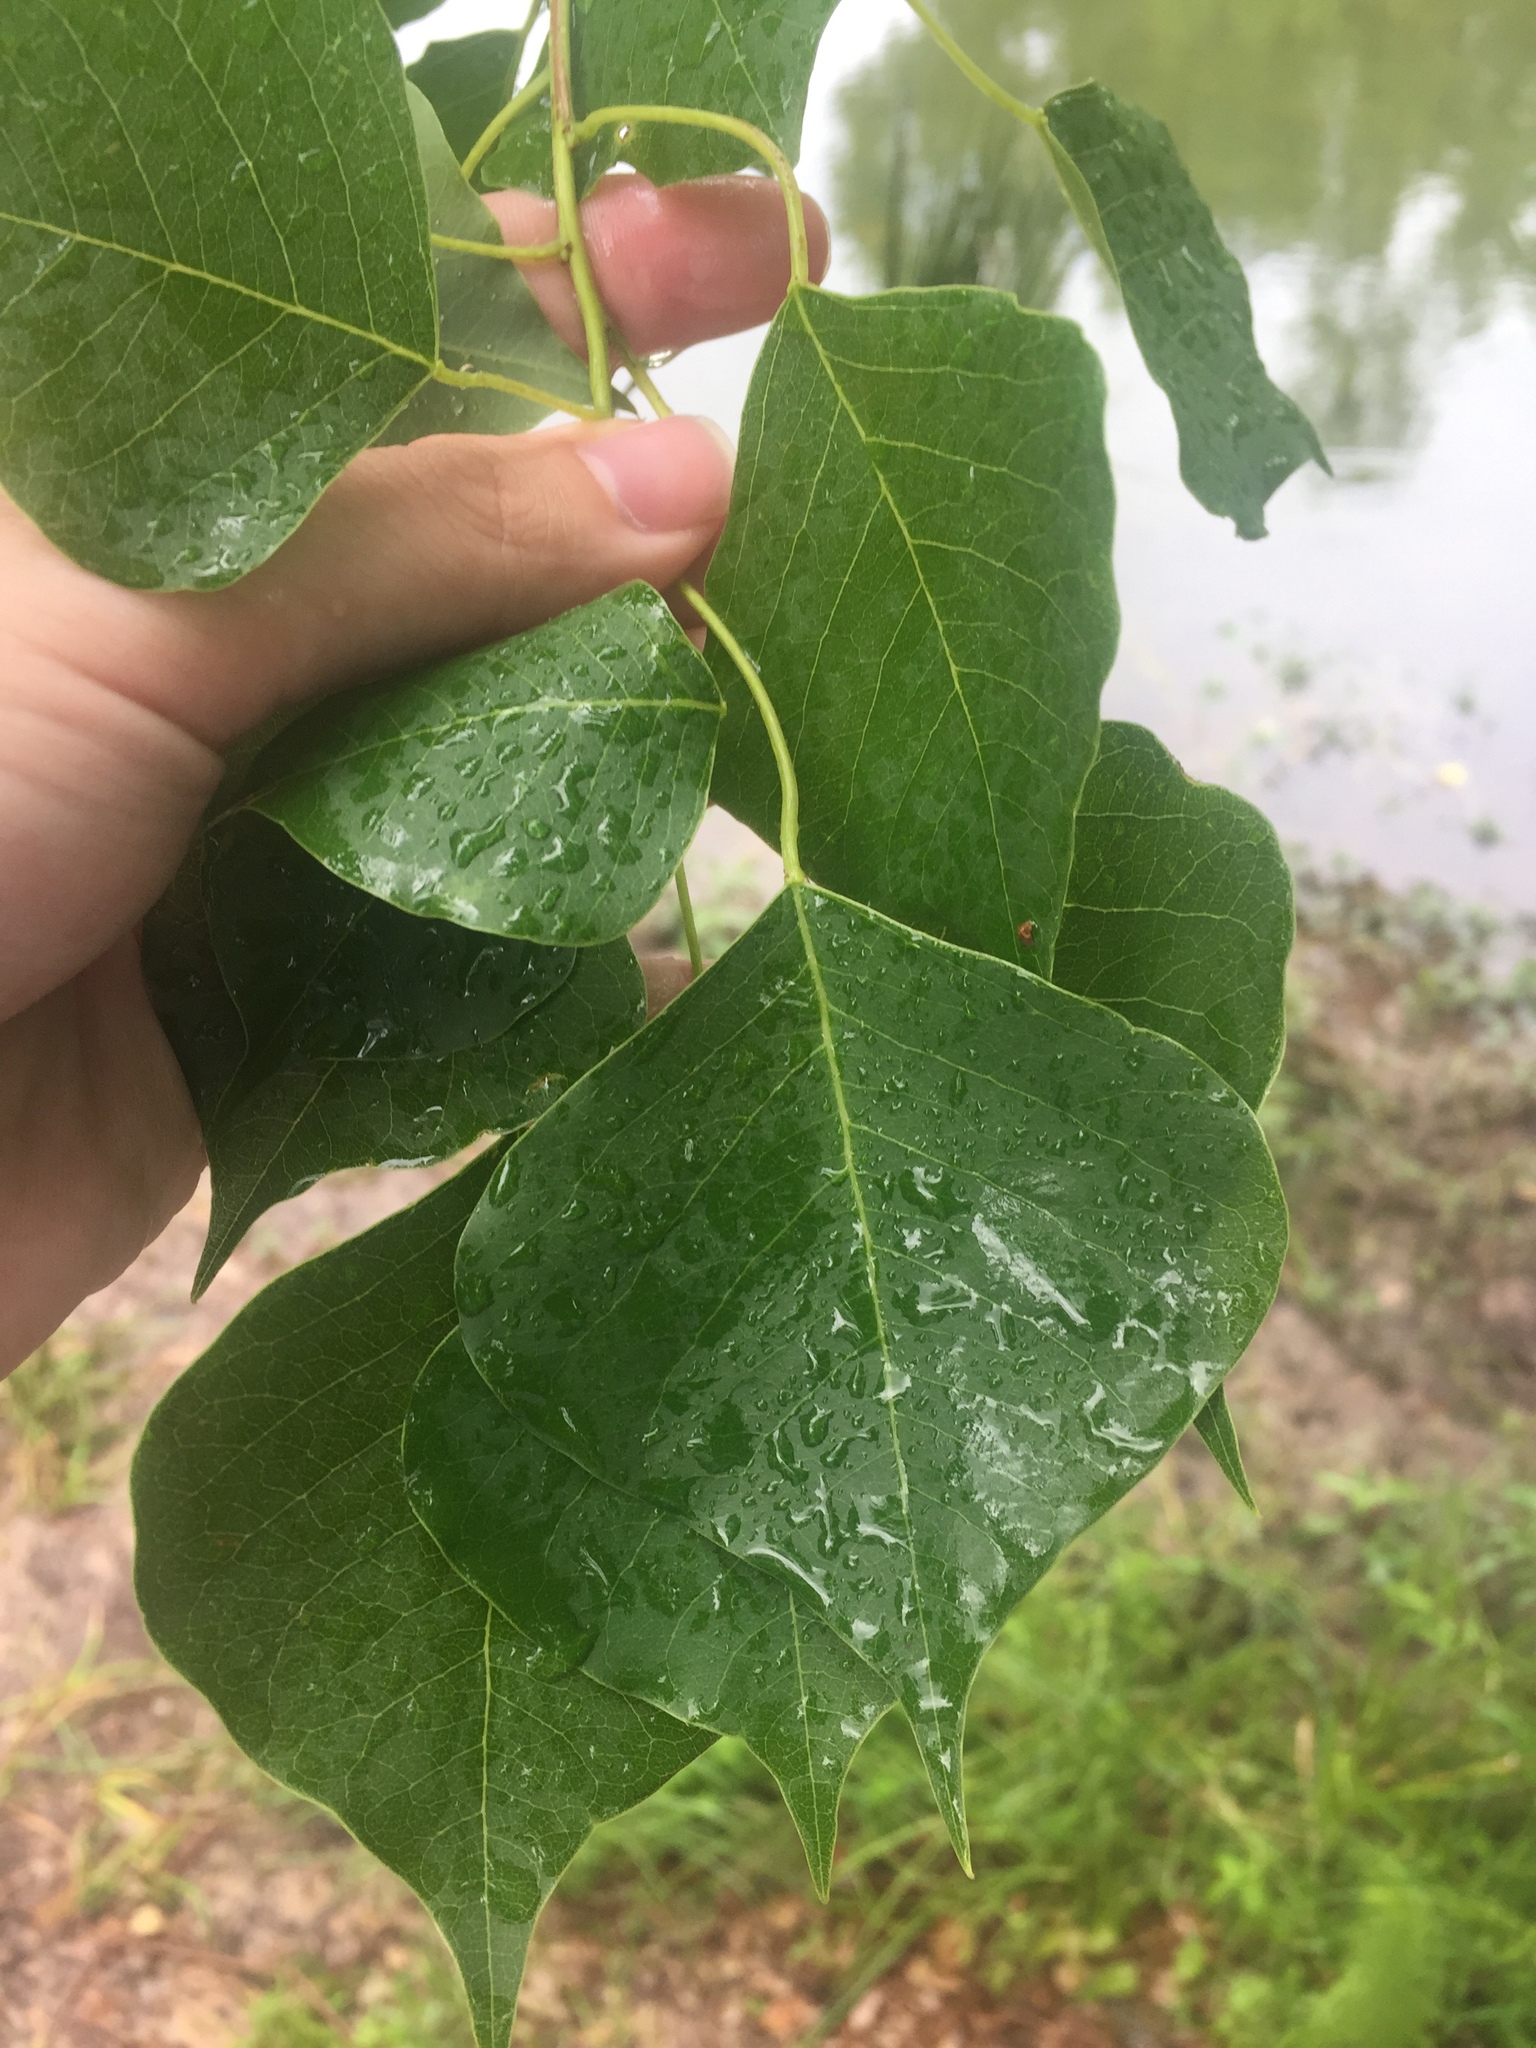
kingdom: Plantae
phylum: Tracheophyta
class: Magnoliopsida
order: Malpighiales
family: Euphorbiaceae
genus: Triadica
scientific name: Triadica sebifera
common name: Chinese tallow
